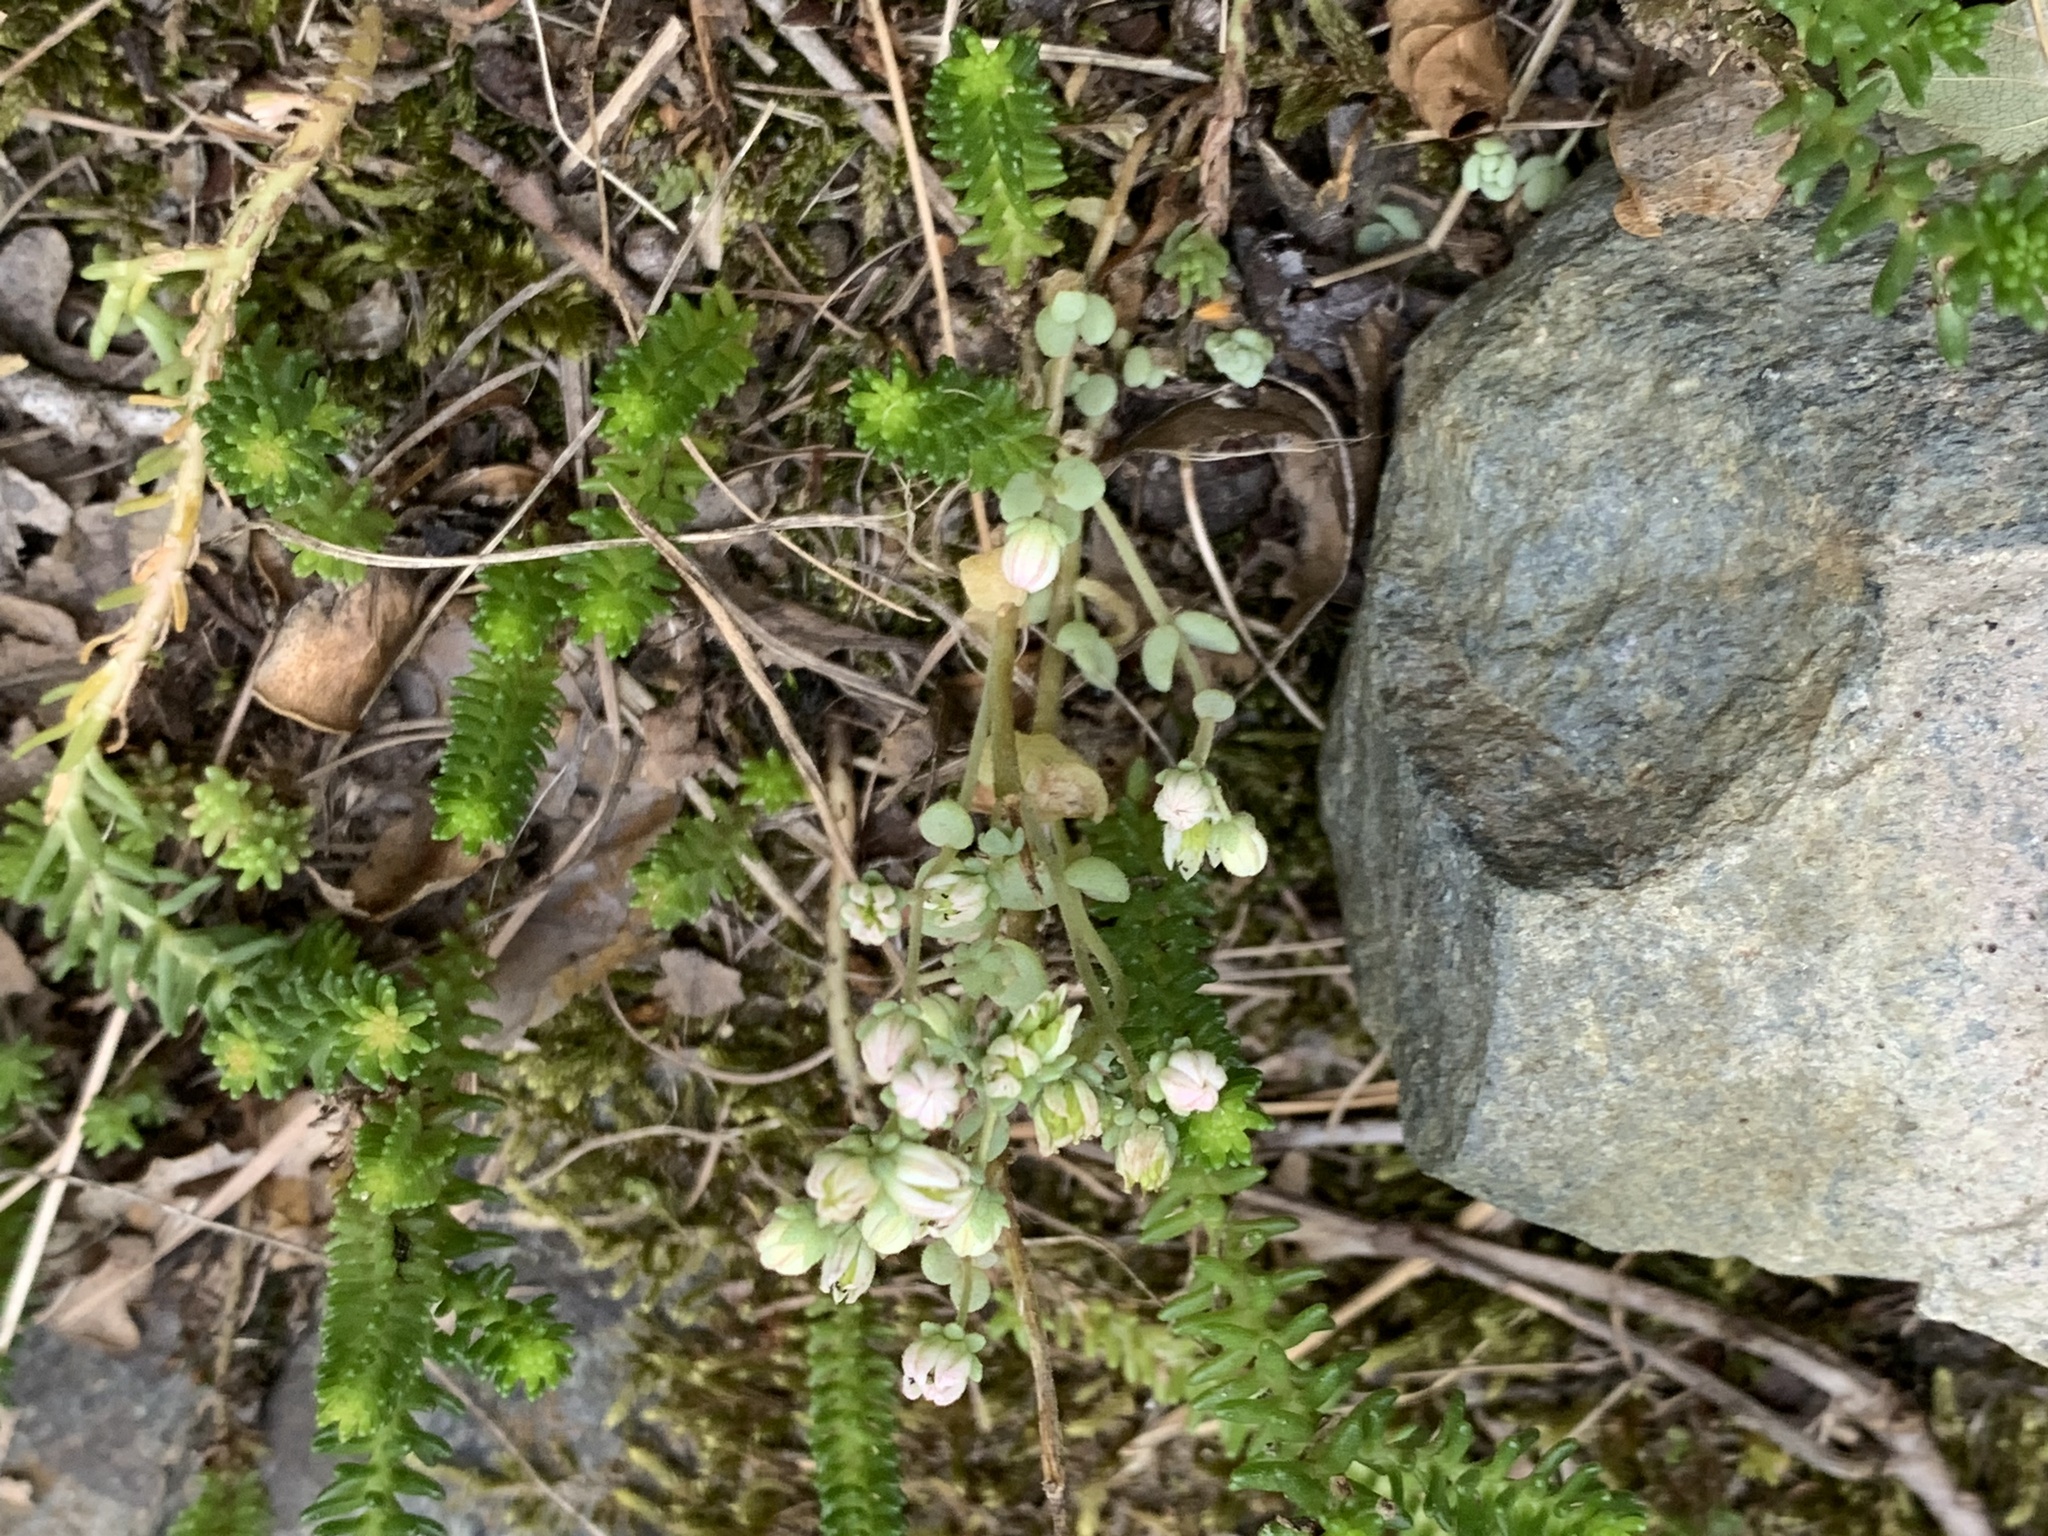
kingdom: Plantae
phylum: Tracheophyta
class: Magnoliopsida
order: Saxifragales
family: Crassulaceae
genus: Sedum
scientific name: Sedum dasyphyllum
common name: Thick-leaf stonecrop
